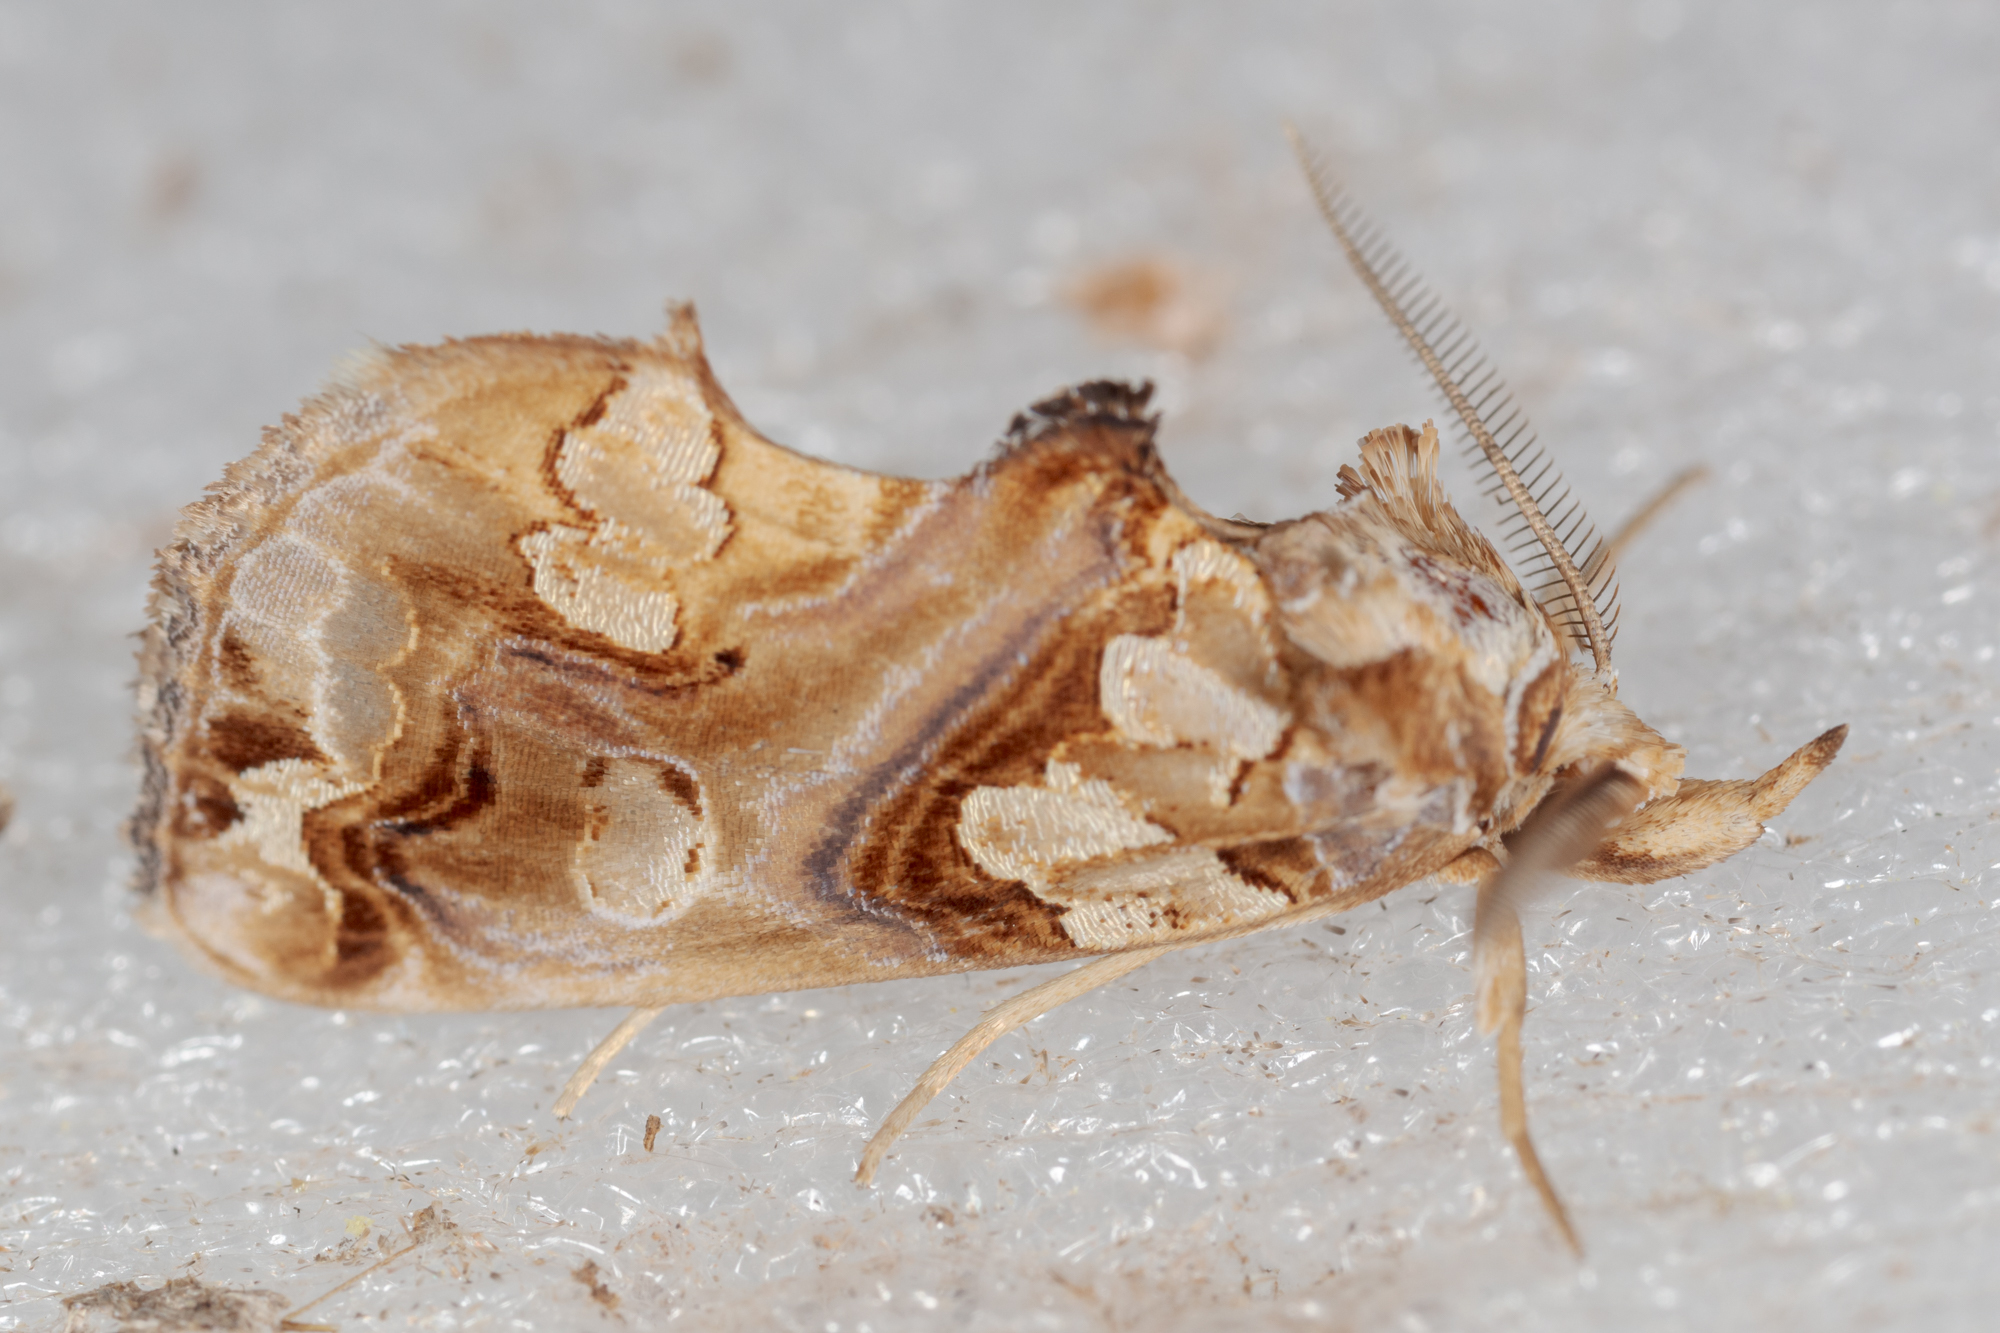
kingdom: Animalia
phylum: Arthropoda
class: Insecta
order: Lepidoptera
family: Erebidae
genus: Plusiodonta
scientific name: Plusiodonta compressipalpis
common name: Moonseed moth
